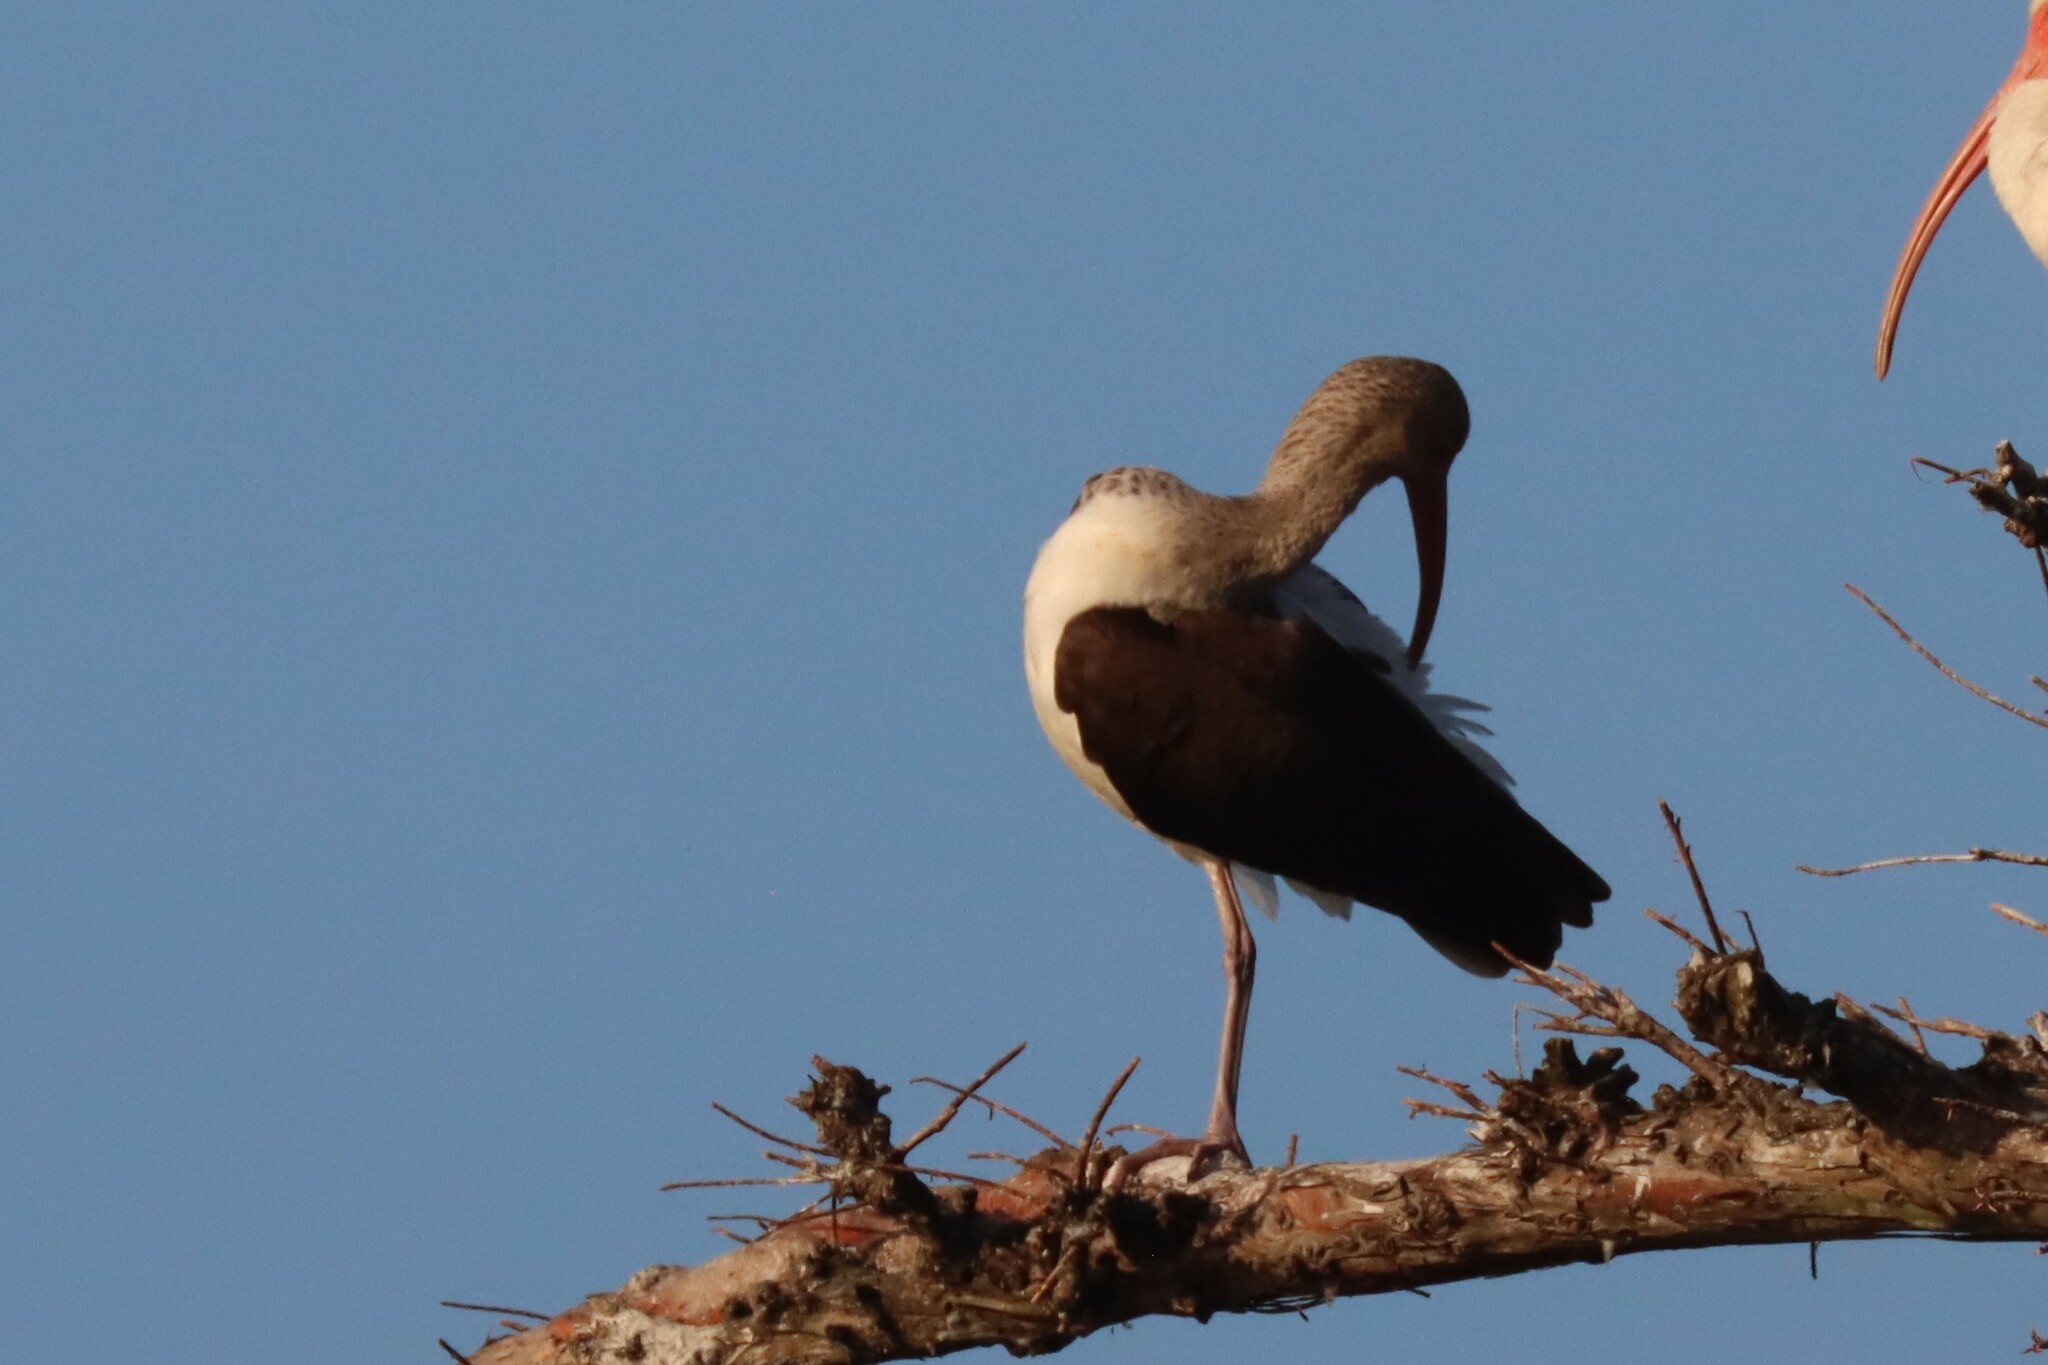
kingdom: Animalia
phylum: Chordata
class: Aves
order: Pelecaniformes
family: Threskiornithidae
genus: Eudocimus
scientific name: Eudocimus albus
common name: White ibis
